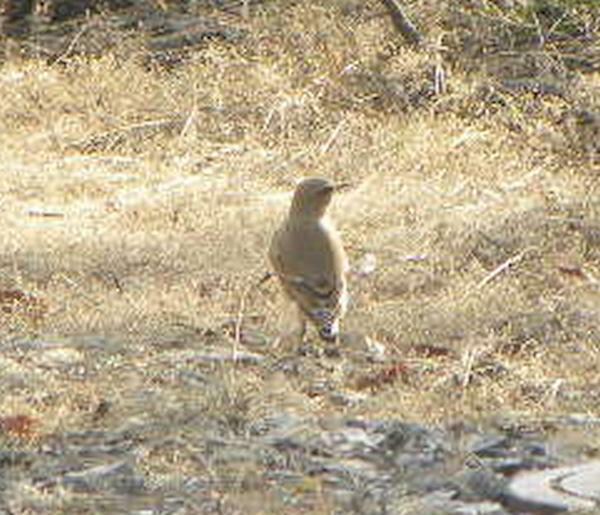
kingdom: Animalia
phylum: Chordata
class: Aves
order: Passeriformes
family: Muscicapidae
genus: Oenanthe
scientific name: Oenanthe oenanthe
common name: Northern wheatear
